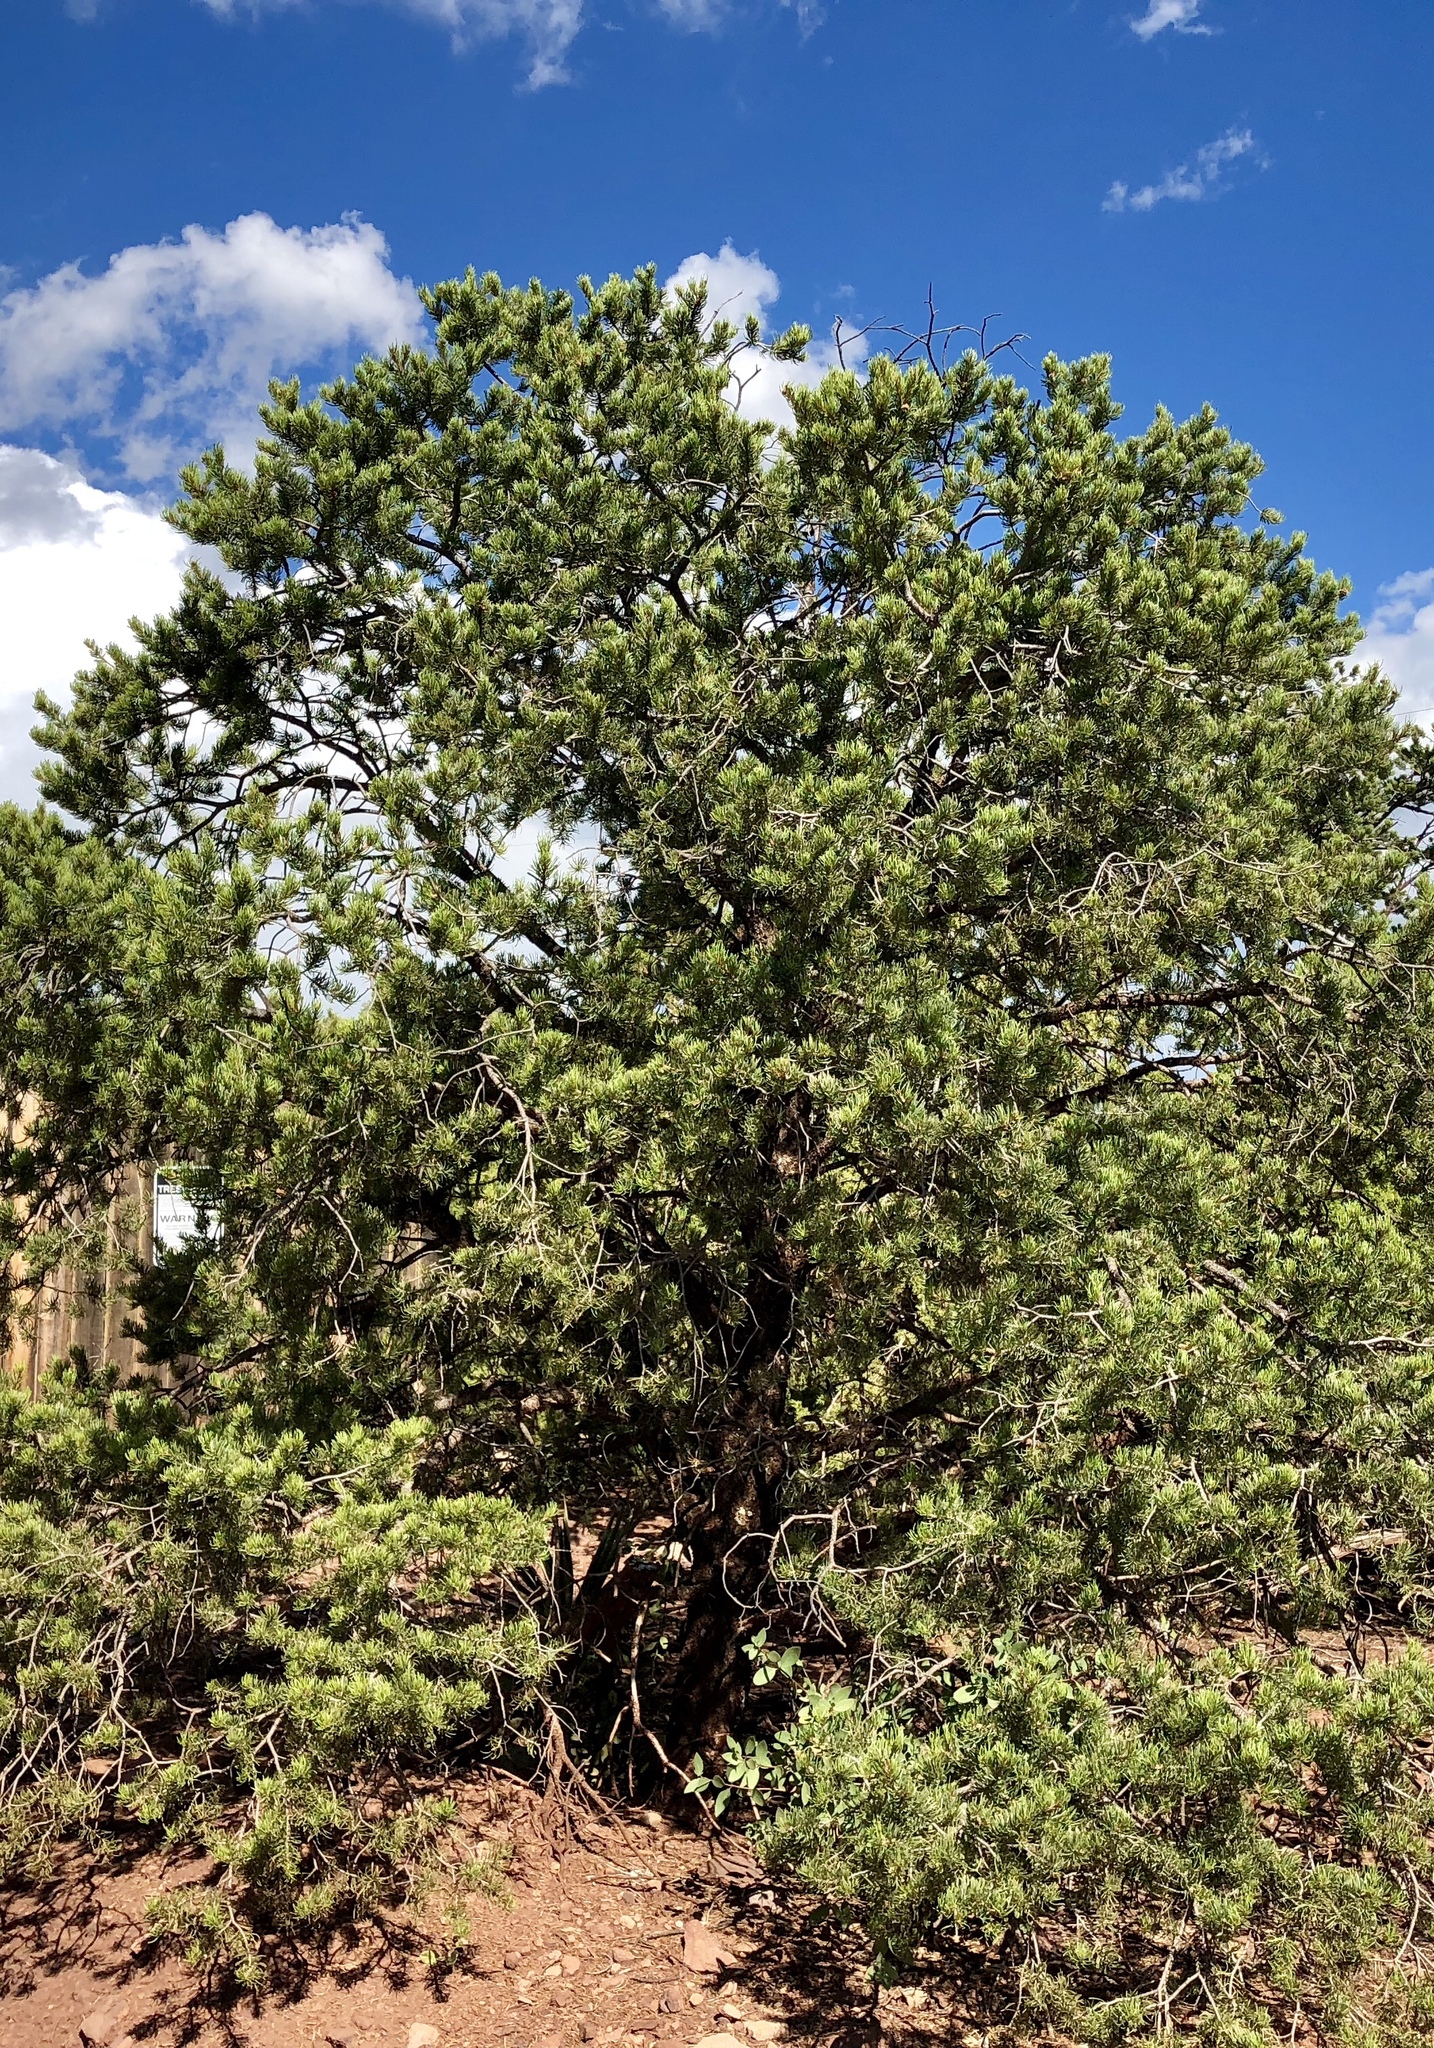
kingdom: Plantae
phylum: Tracheophyta
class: Pinopsida
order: Pinales
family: Pinaceae
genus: Pinus
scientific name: Pinus edulis
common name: Colorado pinyon
